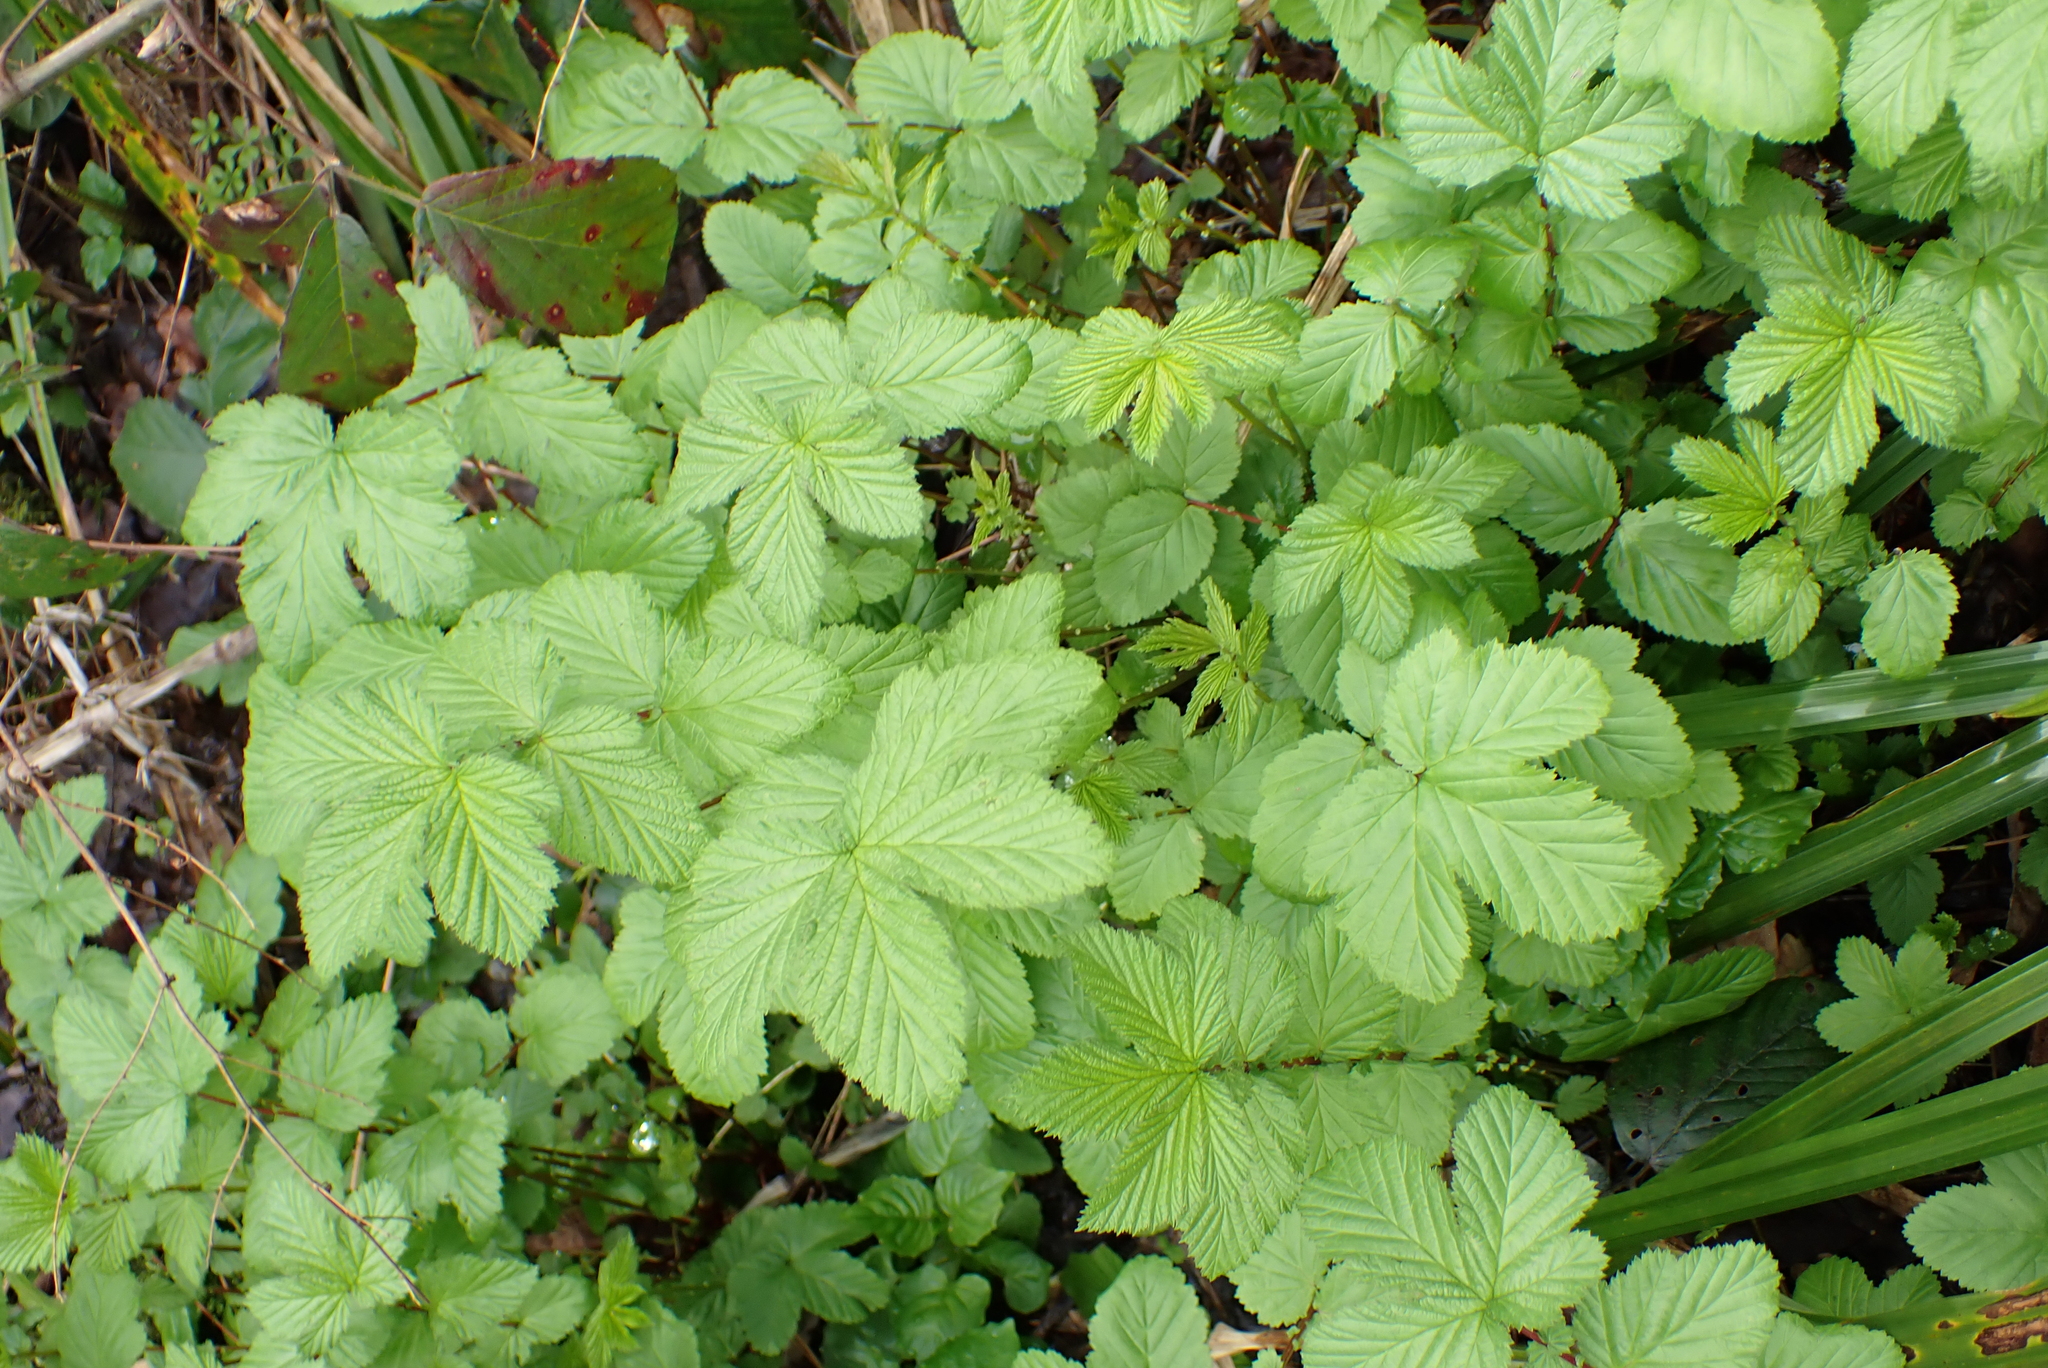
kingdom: Plantae
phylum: Tracheophyta
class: Magnoliopsida
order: Rosales
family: Rosaceae
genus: Filipendula
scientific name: Filipendula ulmaria
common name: Meadowsweet
